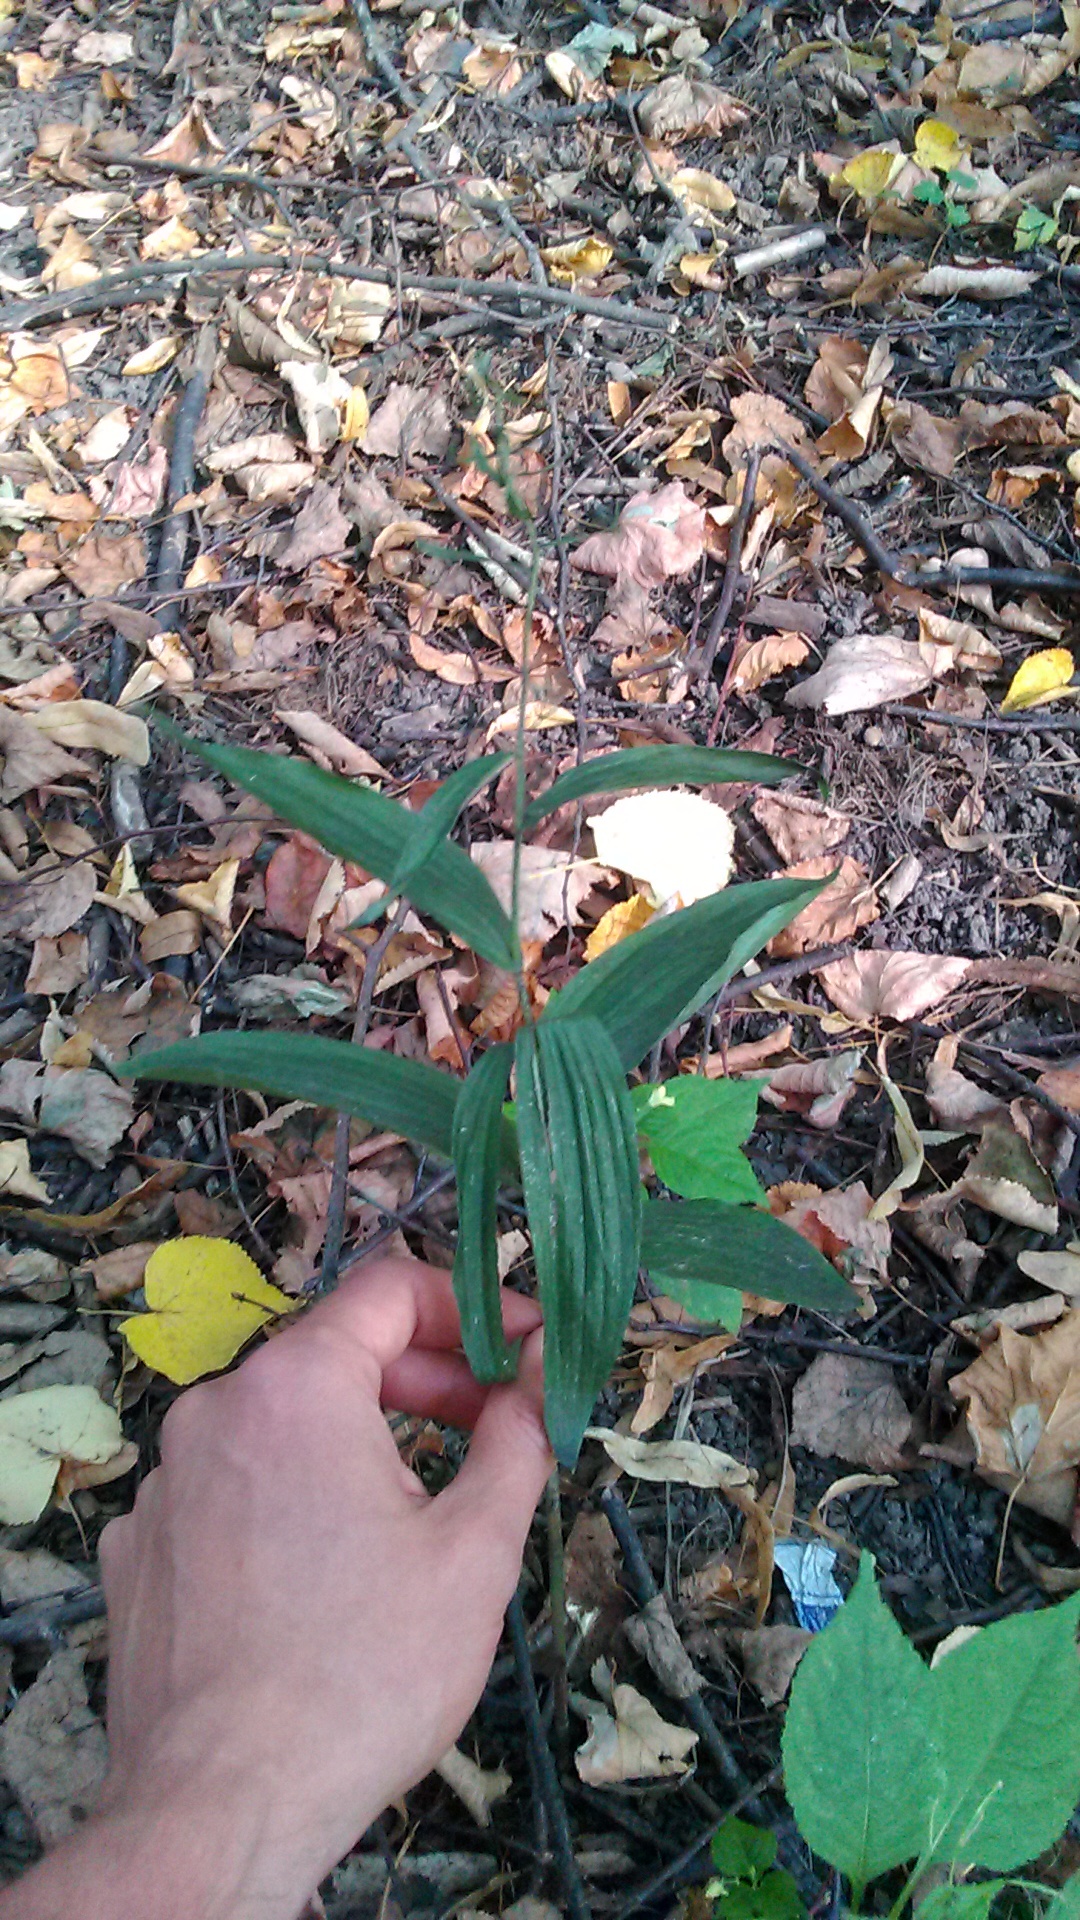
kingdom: Plantae
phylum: Tracheophyta
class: Liliopsida
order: Asparagales
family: Orchidaceae
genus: Epipactis
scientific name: Epipactis helleborine
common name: Broad-leaved helleborine
